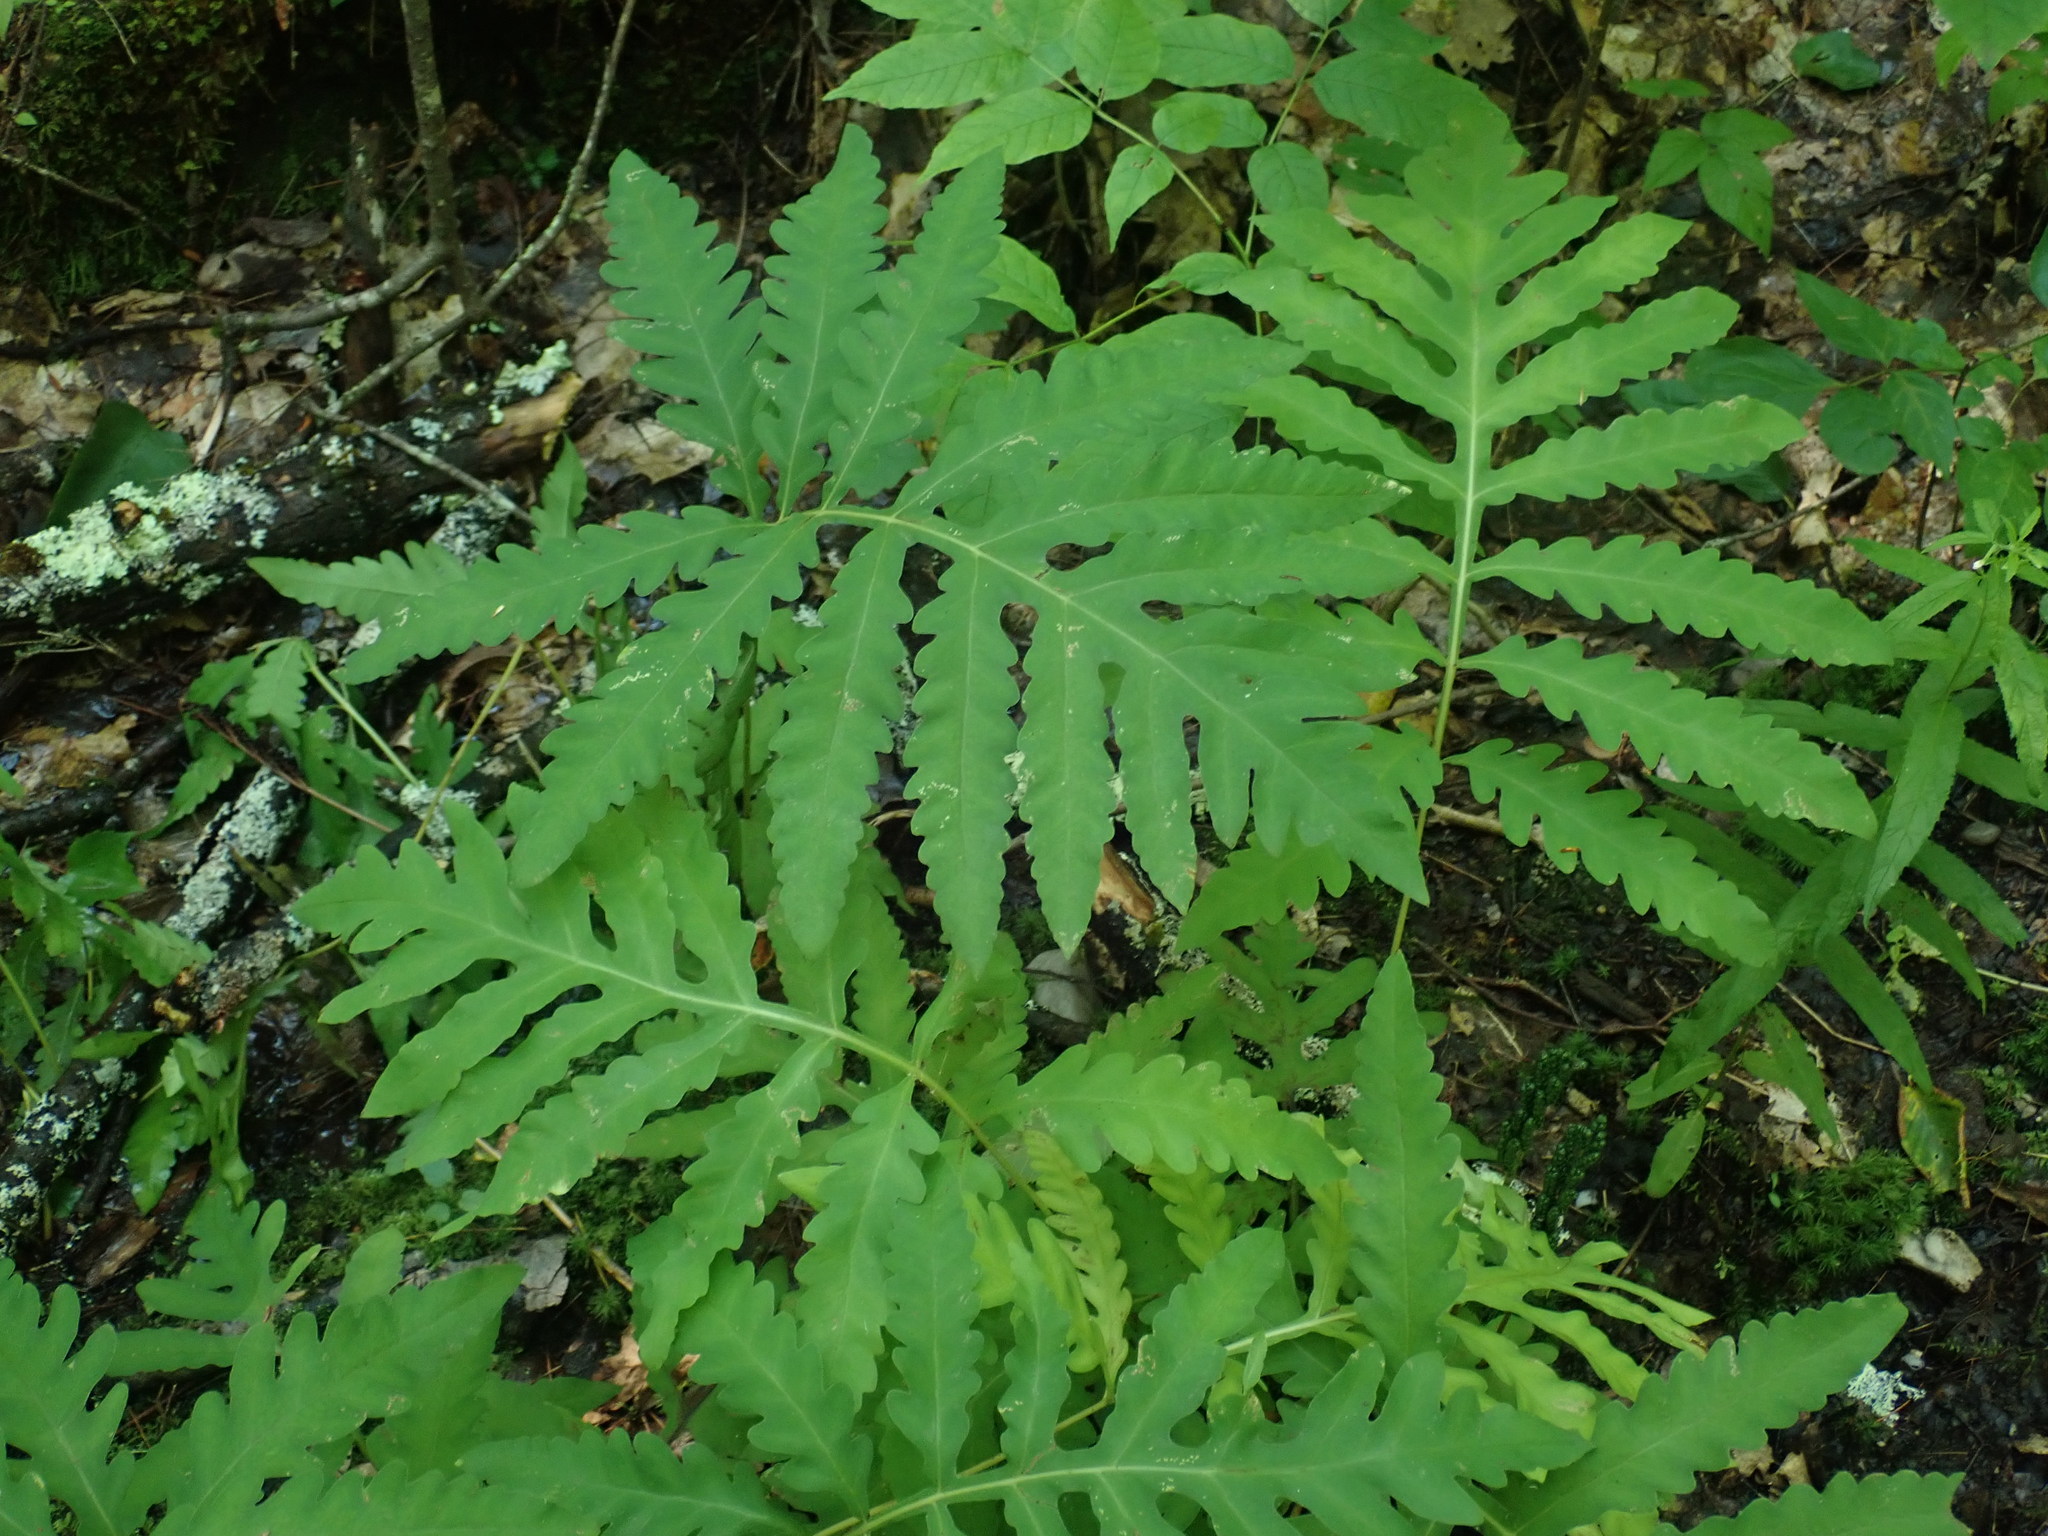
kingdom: Plantae
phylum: Tracheophyta
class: Polypodiopsida
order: Polypodiales
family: Onocleaceae
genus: Onoclea
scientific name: Onoclea sensibilis
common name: Sensitive fern
